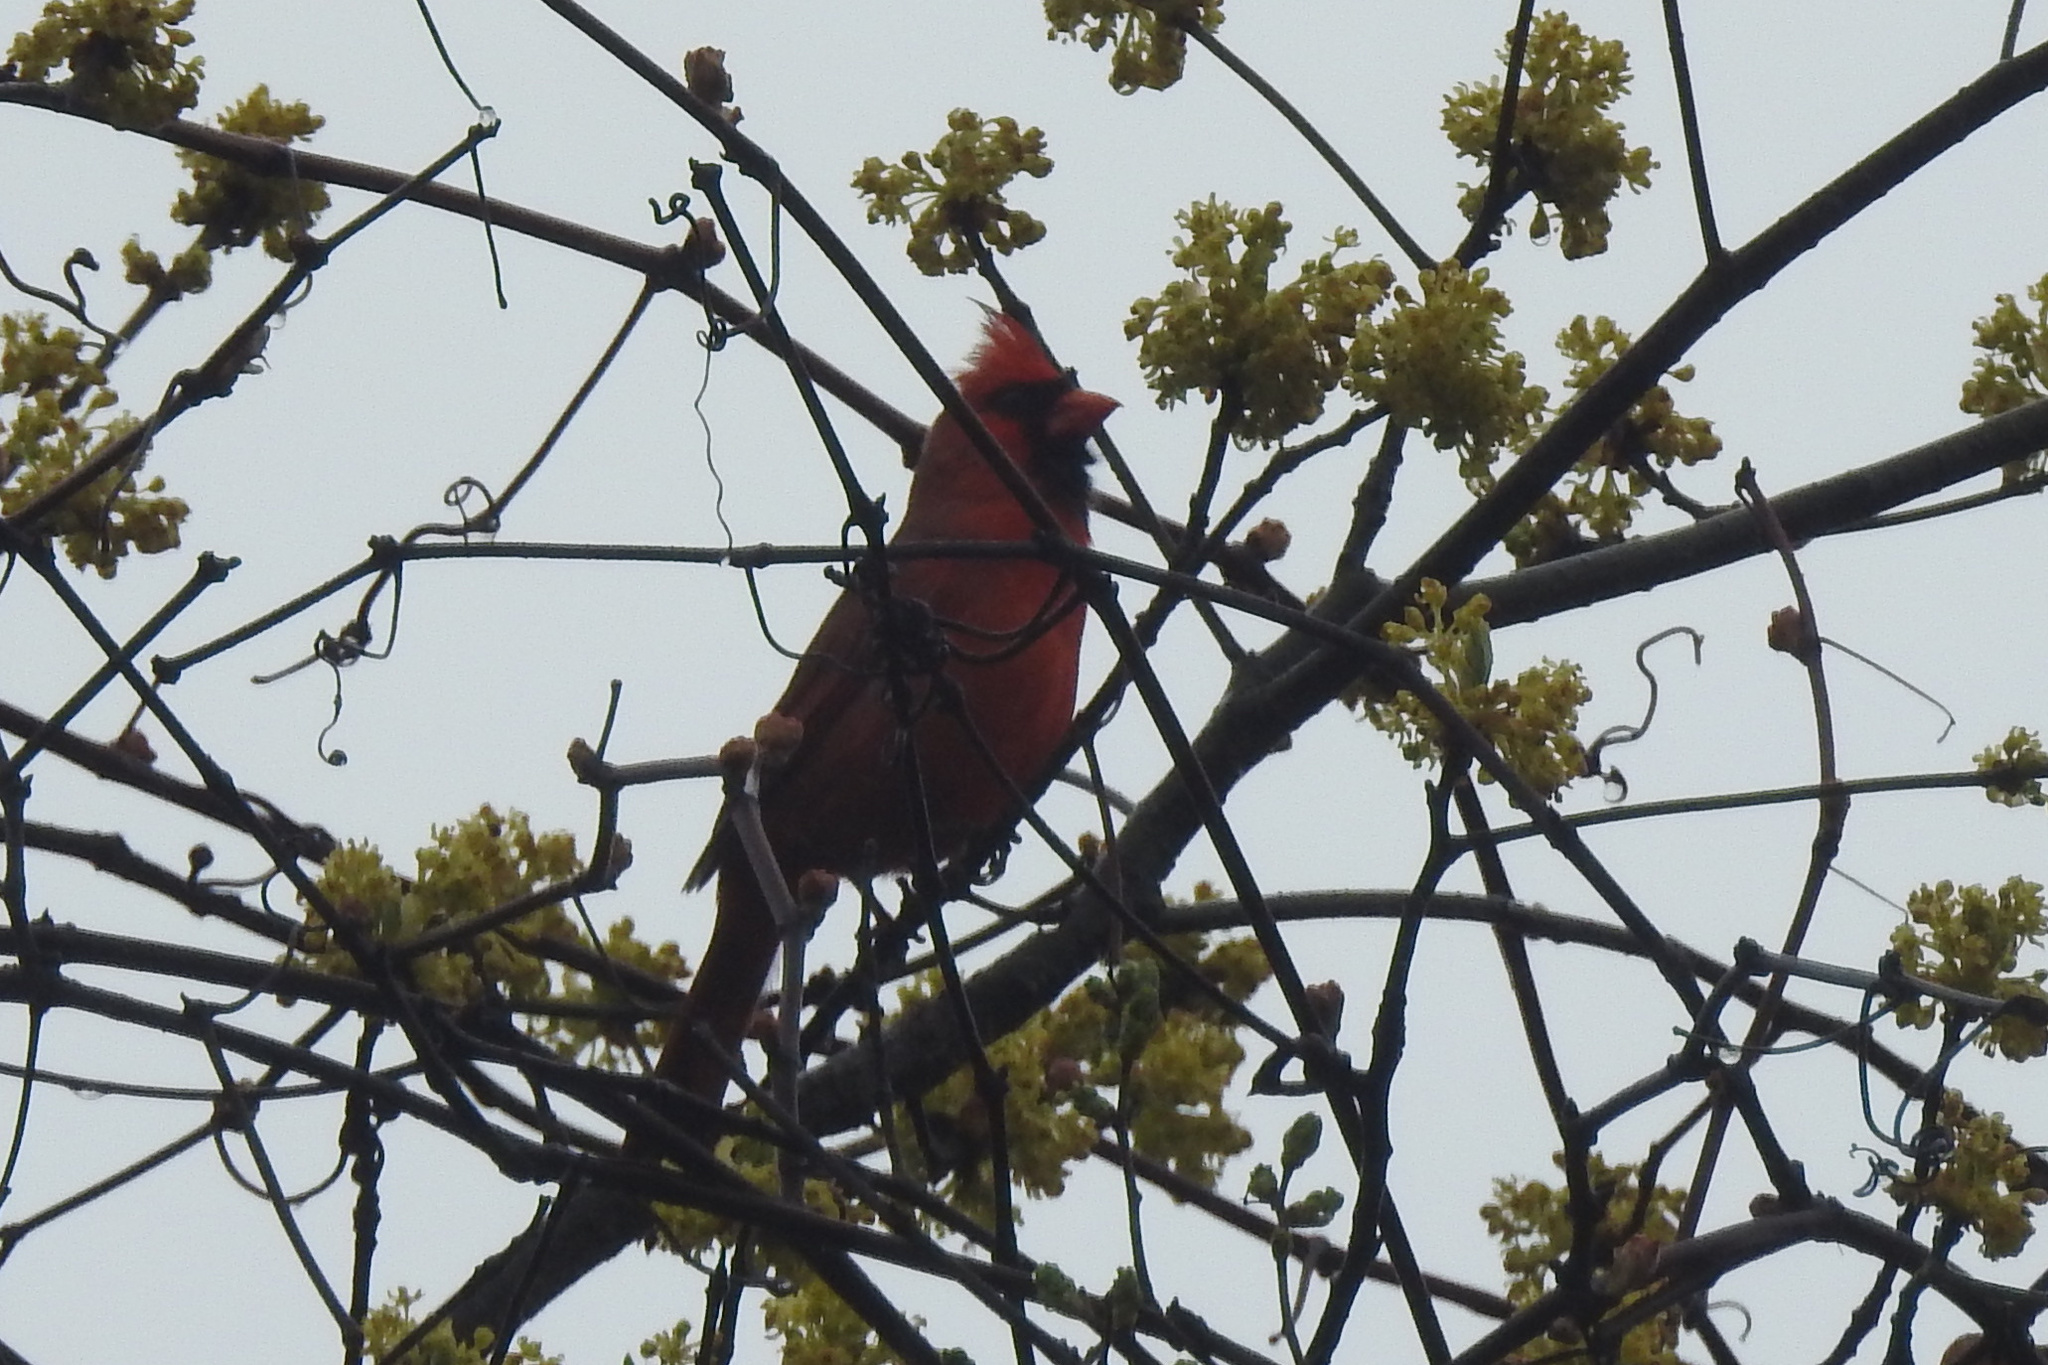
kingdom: Animalia
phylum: Chordata
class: Aves
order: Passeriformes
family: Cardinalidae
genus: Cardinalis
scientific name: Cardinalis cardinalis
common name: Northern cardinal
